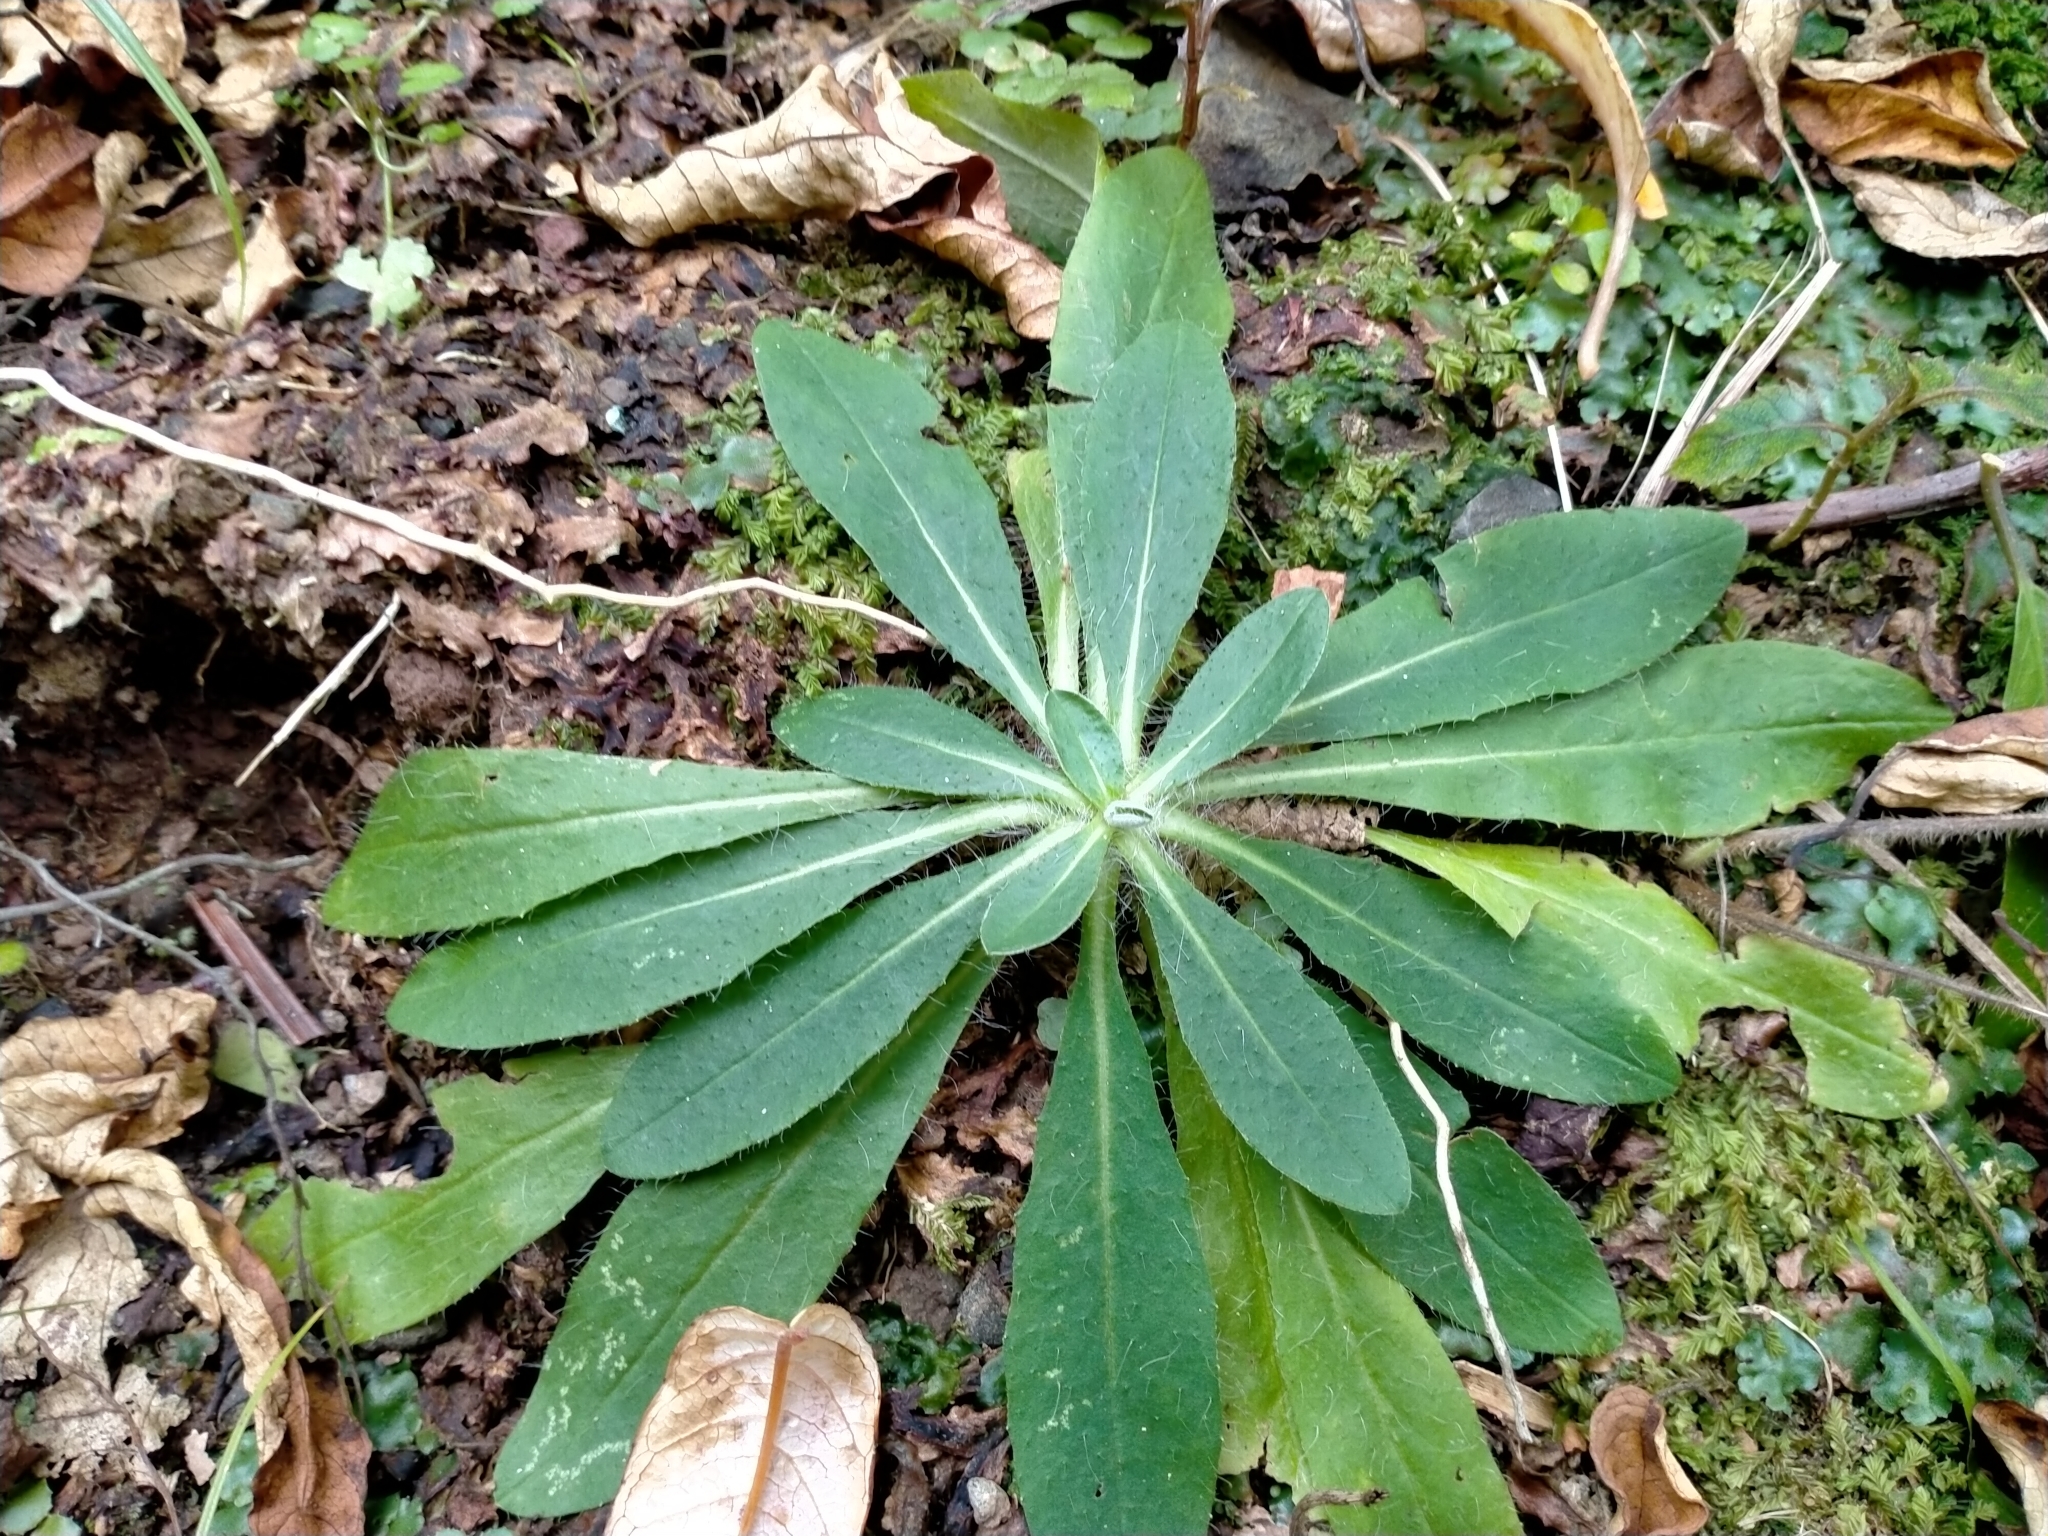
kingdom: Plantae
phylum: Tracheophyta
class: Magnoliopsida
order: Asterales
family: Asteraceae
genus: Pilosella
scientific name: Pilosella officinarum
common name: Mouse-ear hawkweed
